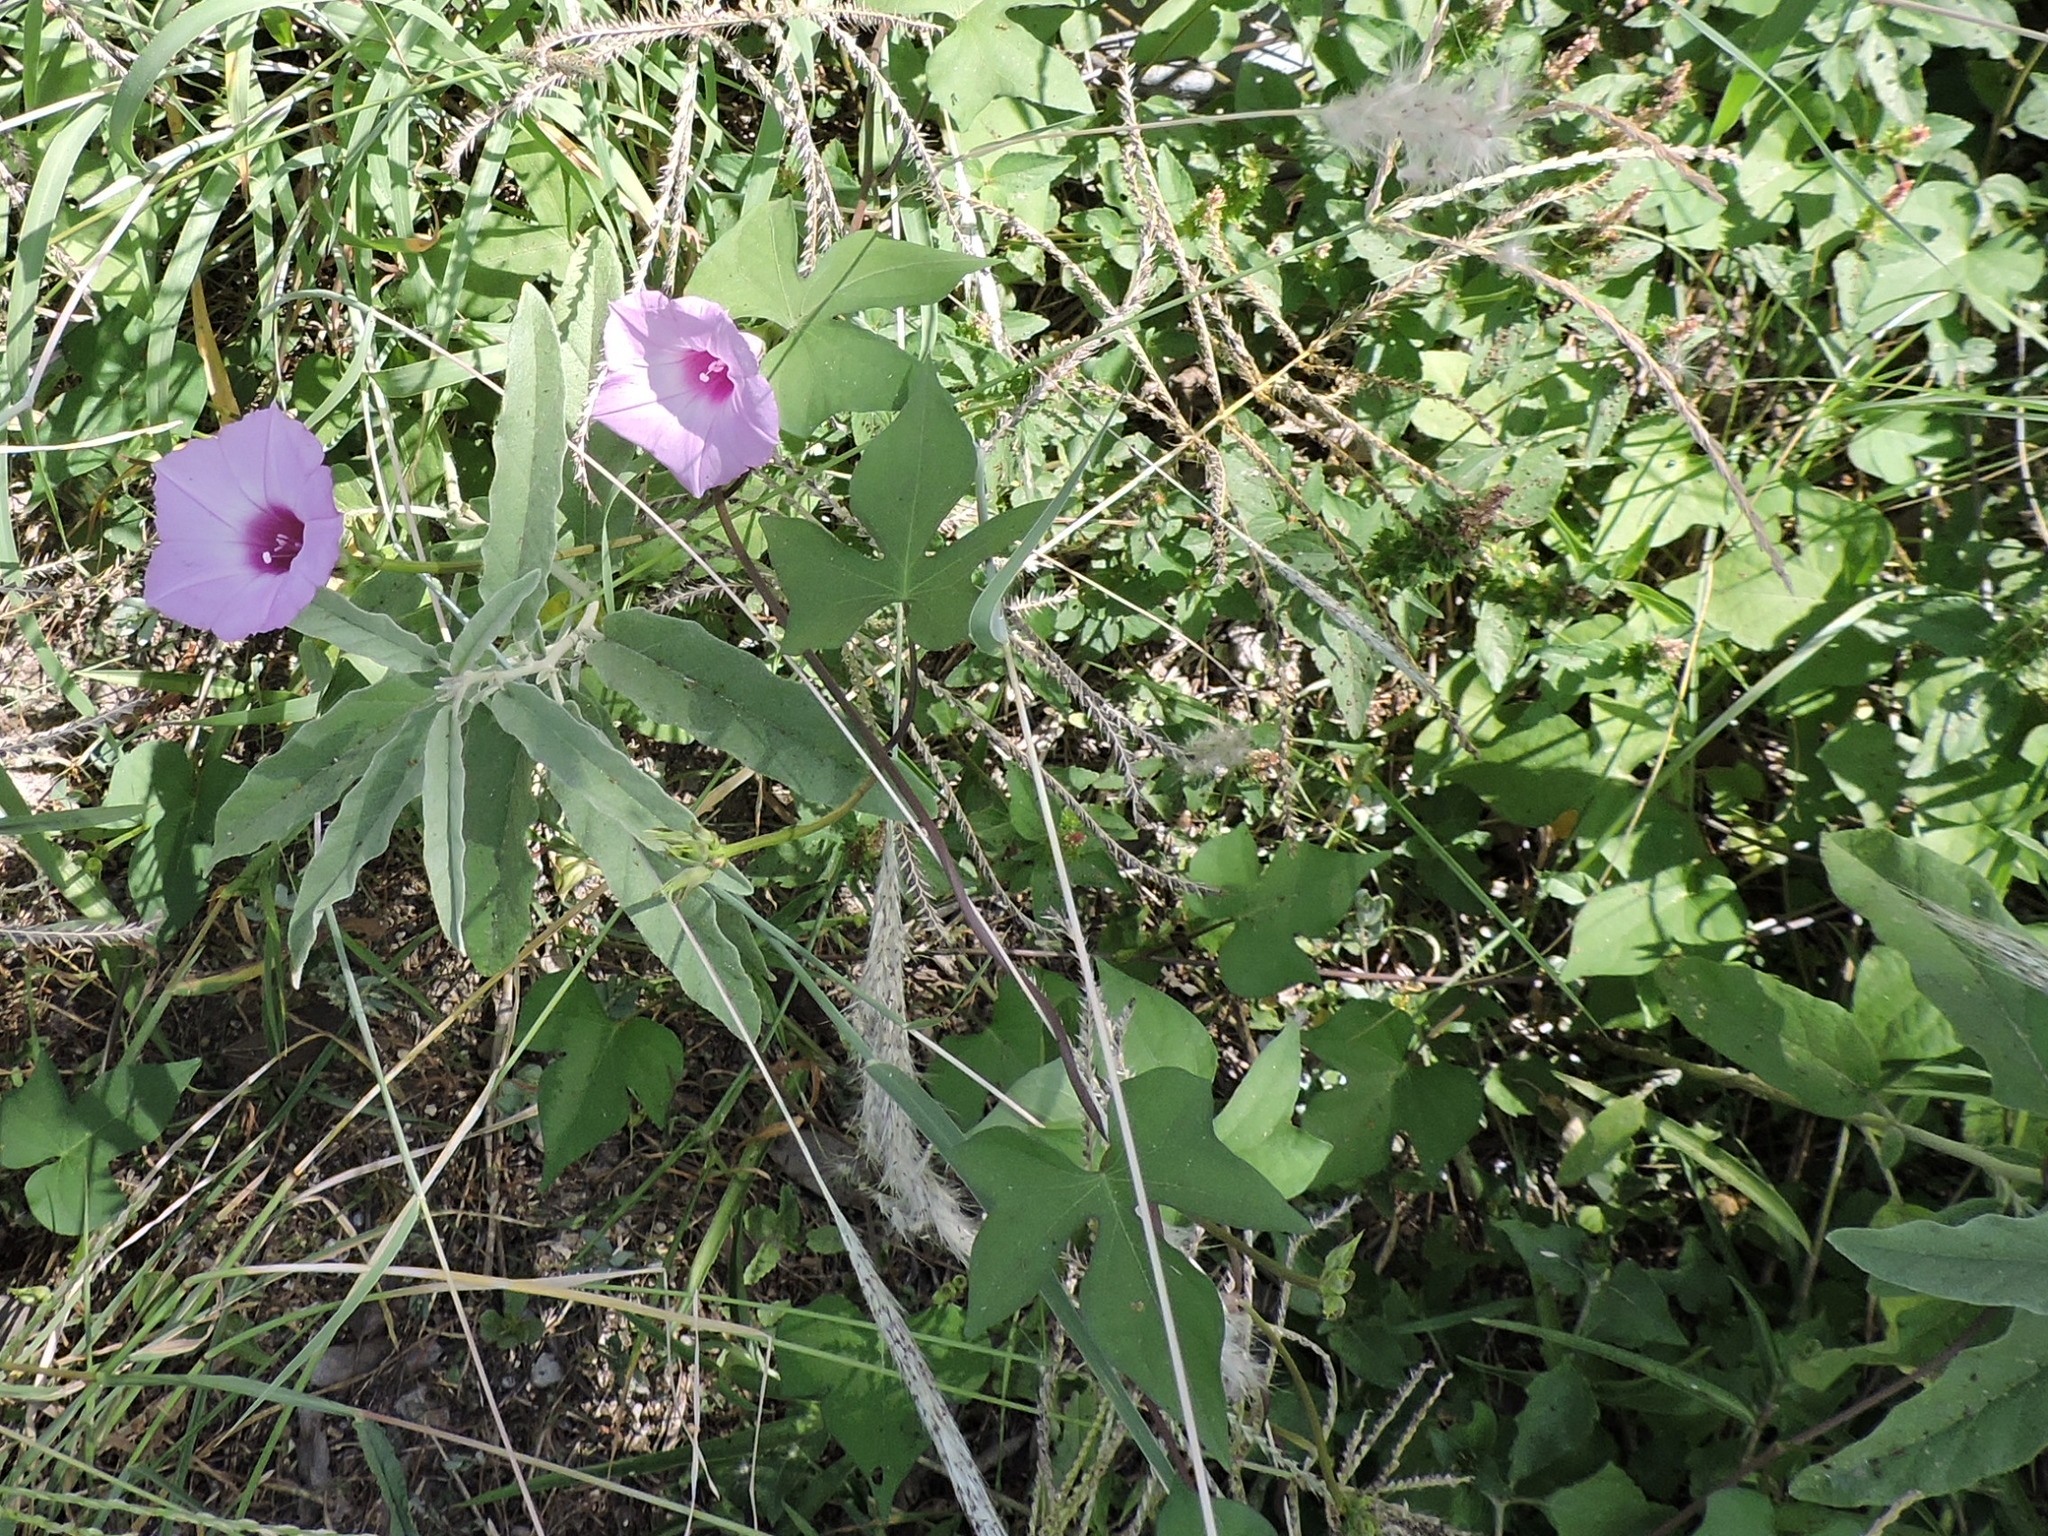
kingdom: Plantae
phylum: Tracheophyta
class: Magnoliopsida
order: Solanales
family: Convolvulaceae
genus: Ipomoea
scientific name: Ipomoea cordatotriloba
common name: Cotton morning glory
